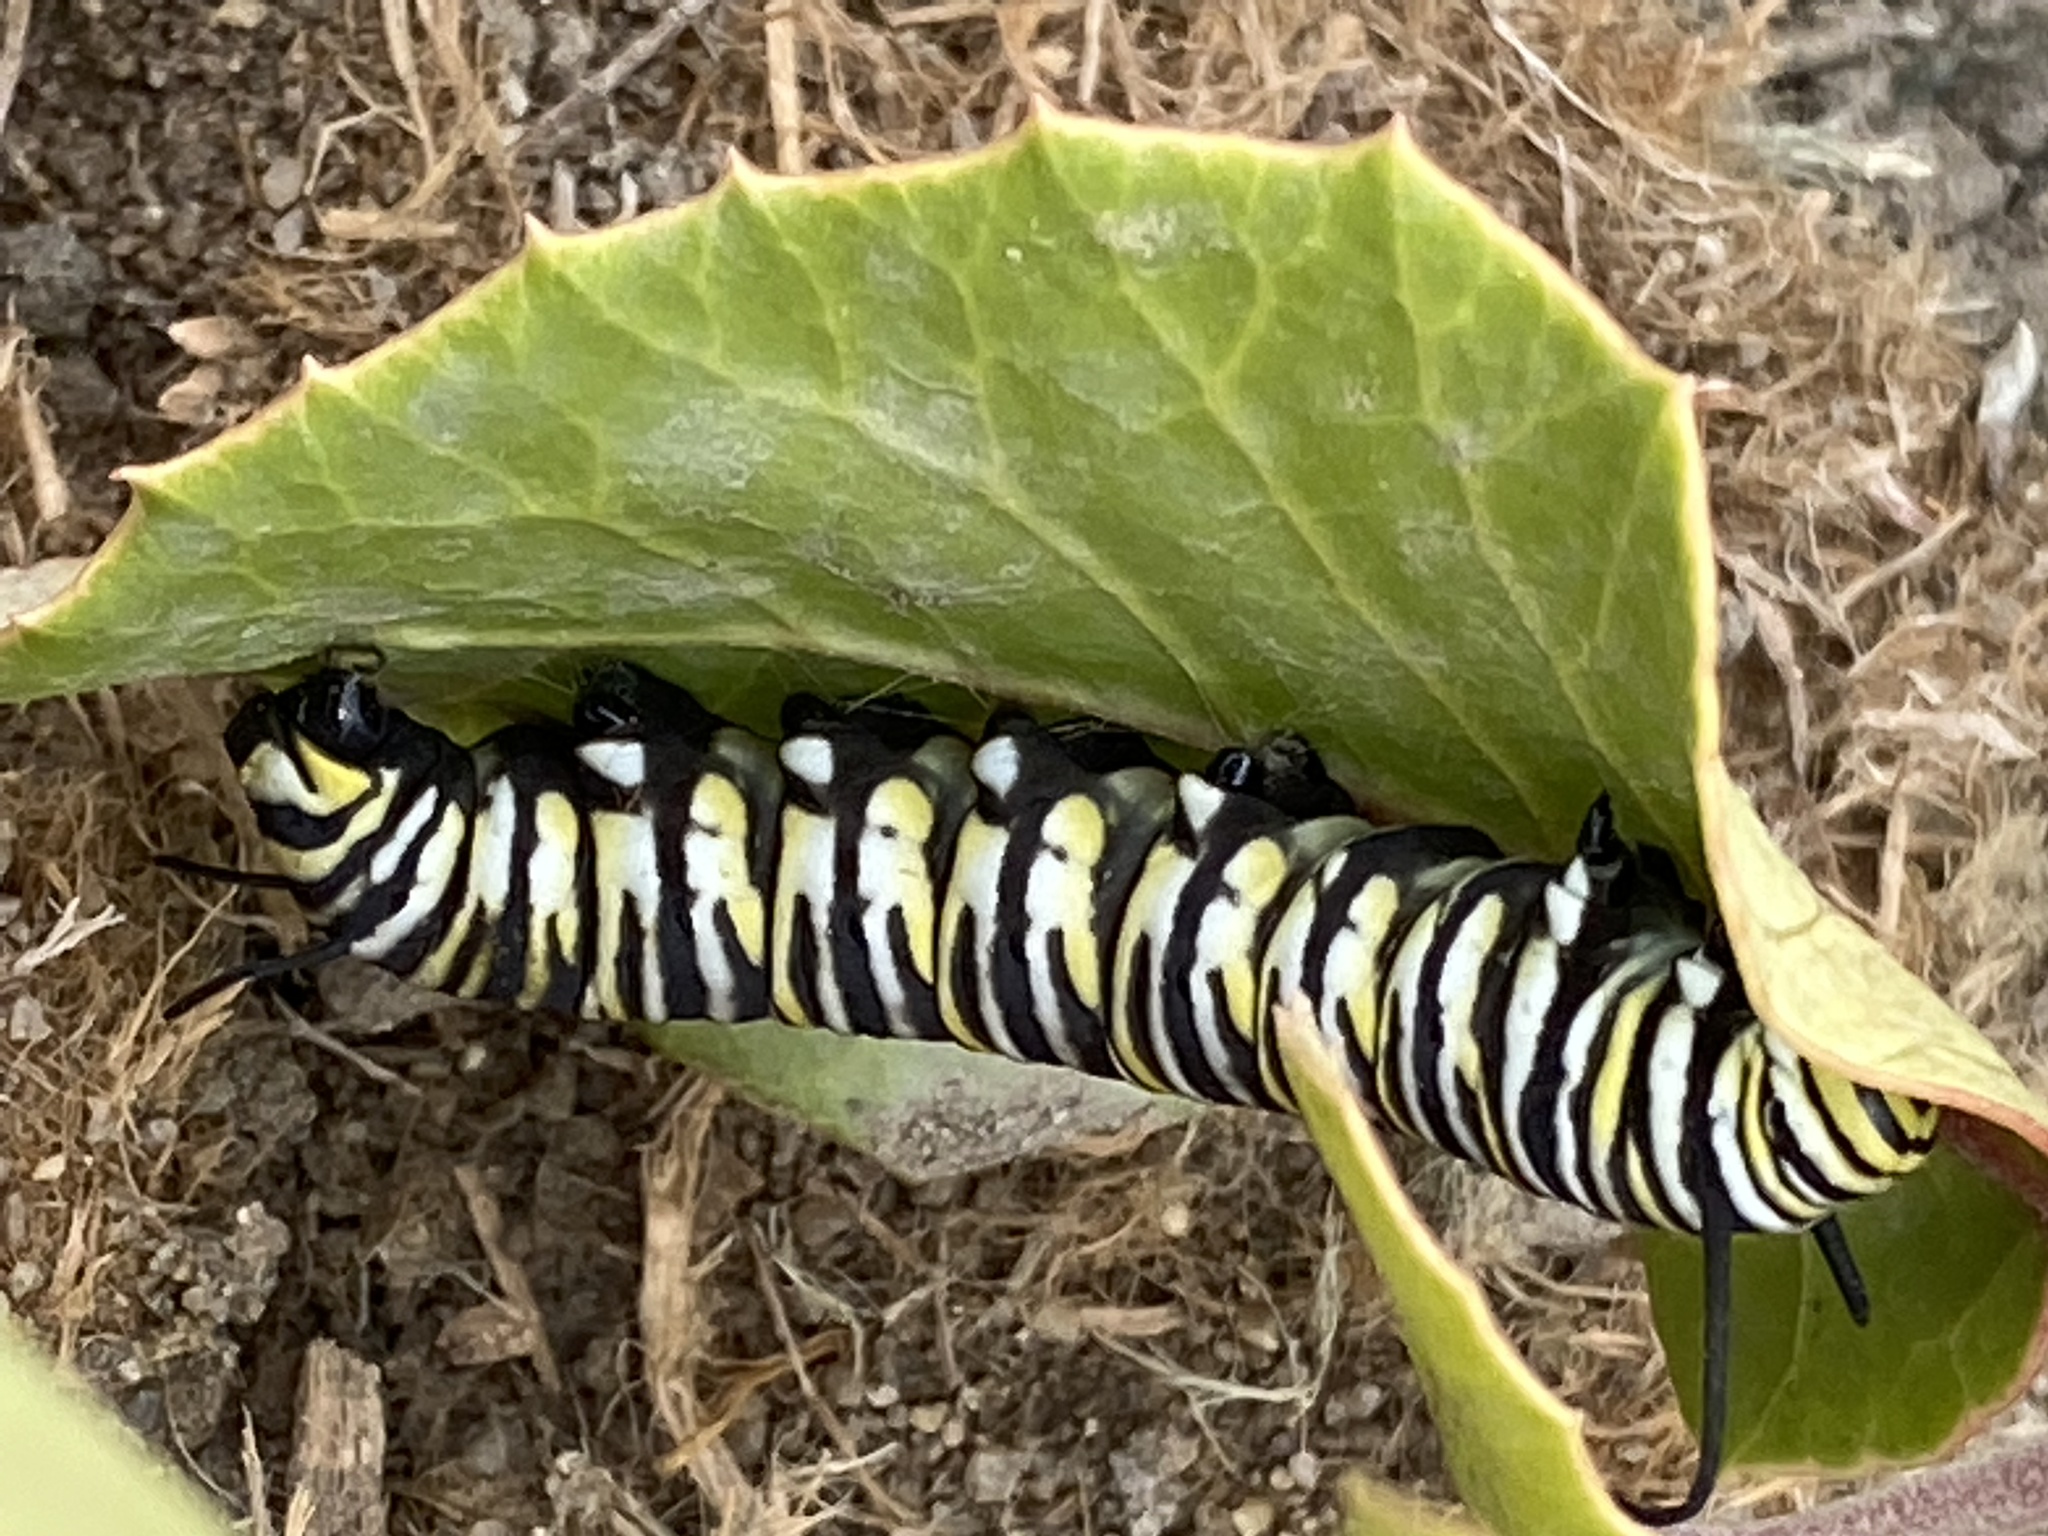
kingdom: Animalia
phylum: Arthropoda
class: Insecta
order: Lepidoptera
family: Nymphalidae
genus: Danaus
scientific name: Danaus plexippus
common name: Monarch
